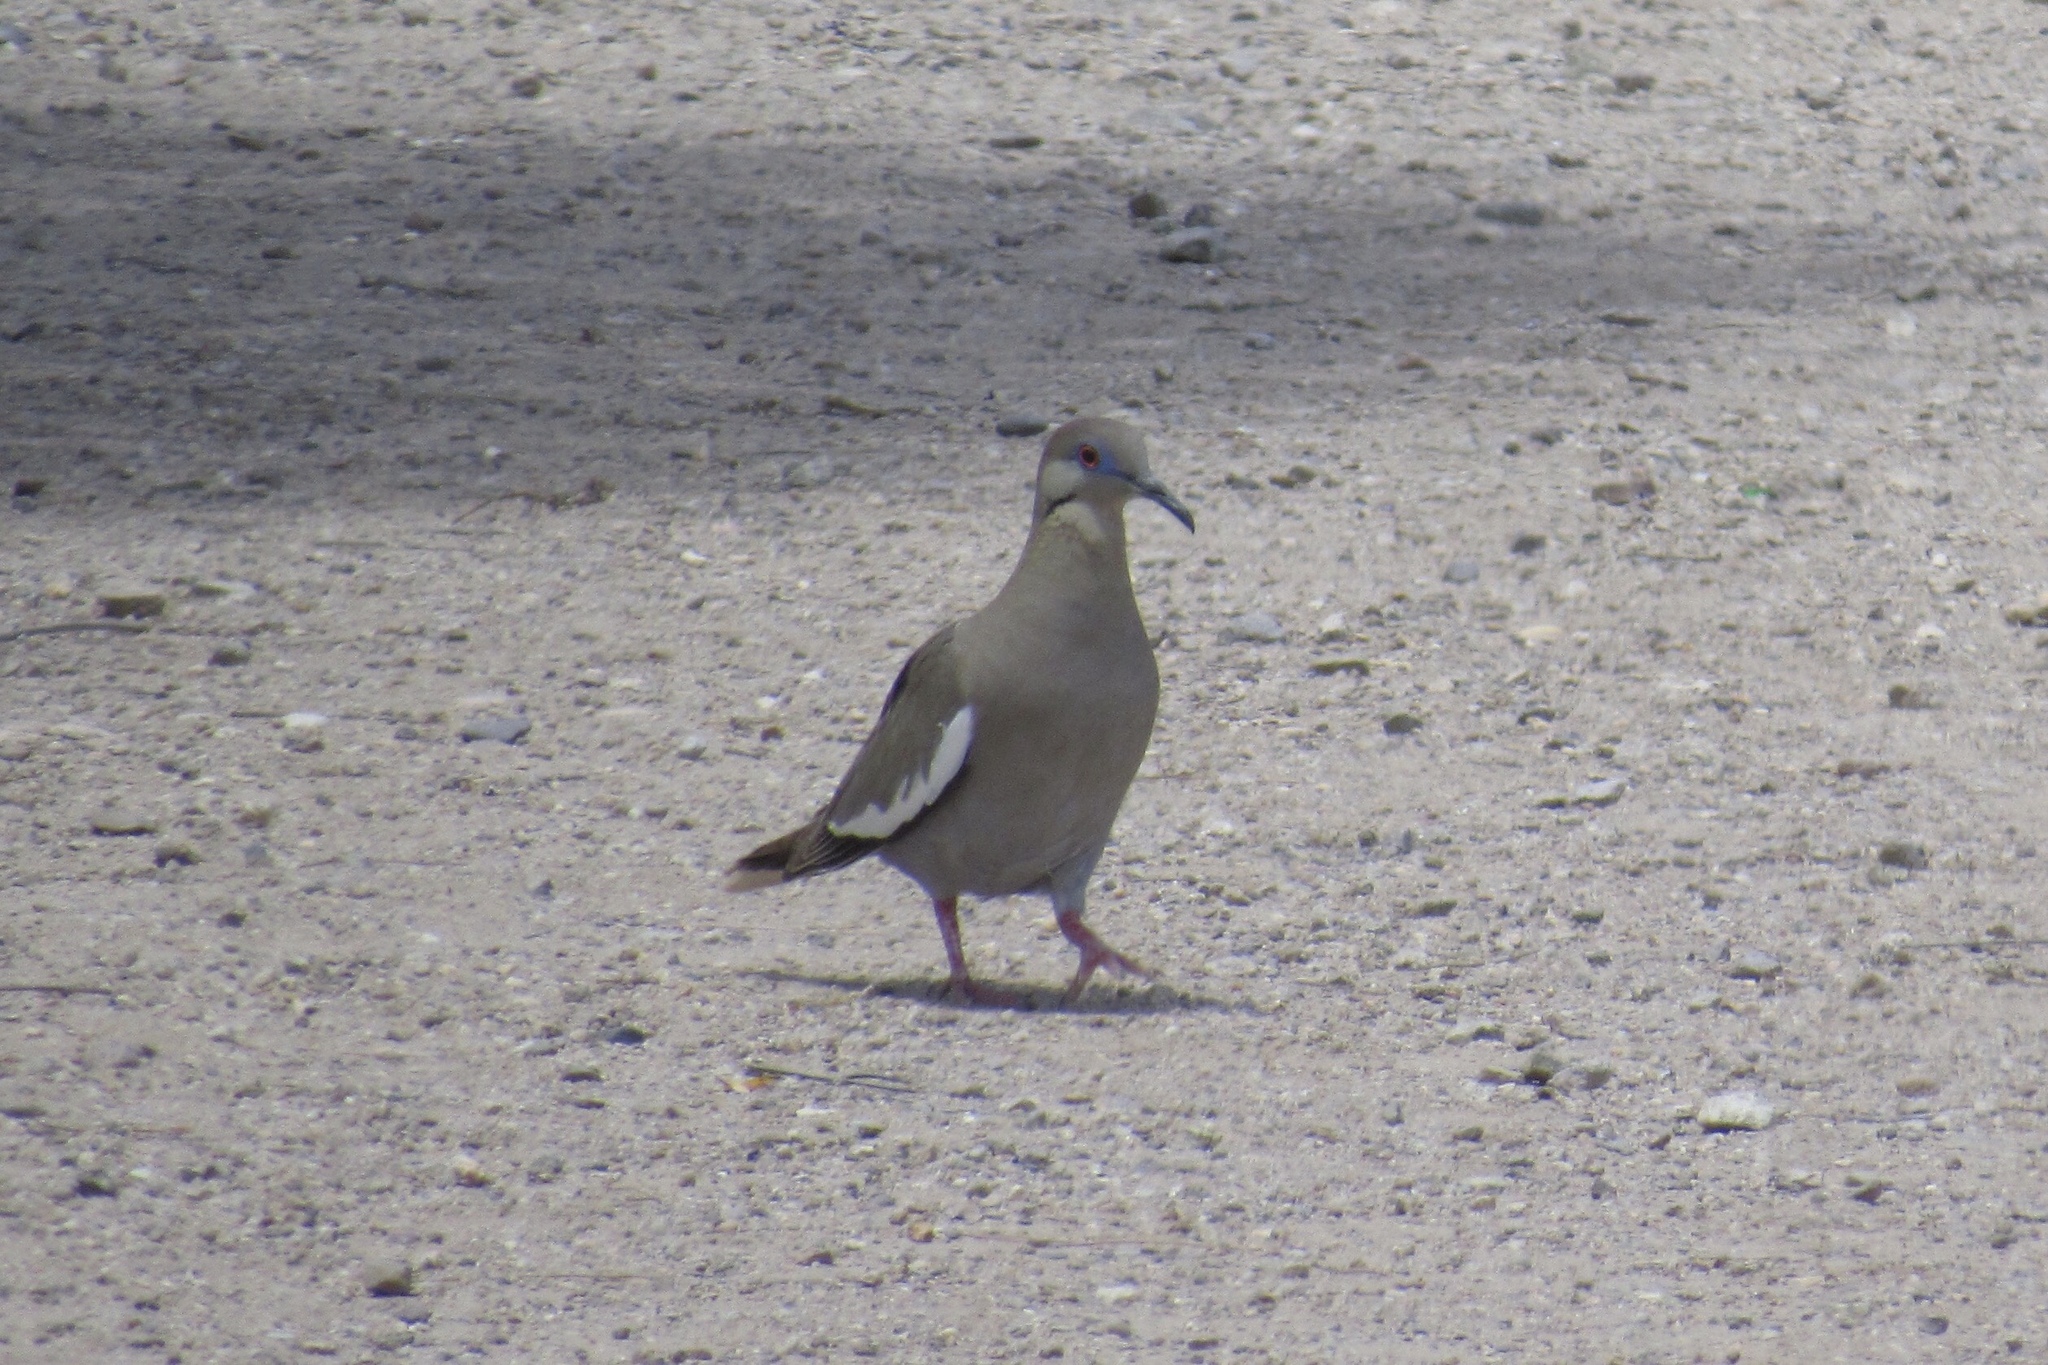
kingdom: Animalia
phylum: Chordata
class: Aves
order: Columbiformes
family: Columbidae
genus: Zenaida
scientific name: Zenaida asiatica
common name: White-winged dove
